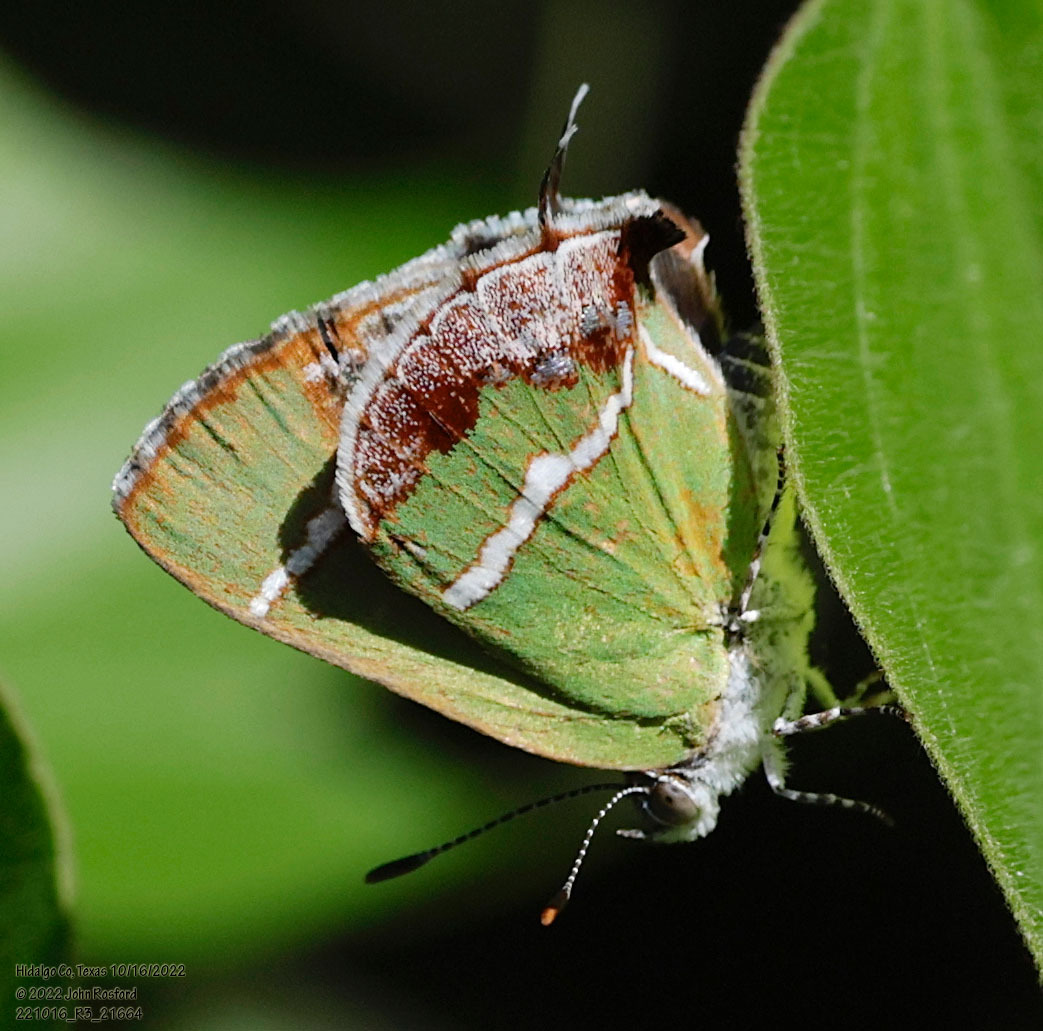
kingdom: Animalia
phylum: Arthropoda
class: Insecta
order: Lepidoptera
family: Lycaenidae
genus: Chlorostrymon
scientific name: Chlorostrymon simaethis
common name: Silver-banded hairstreak
